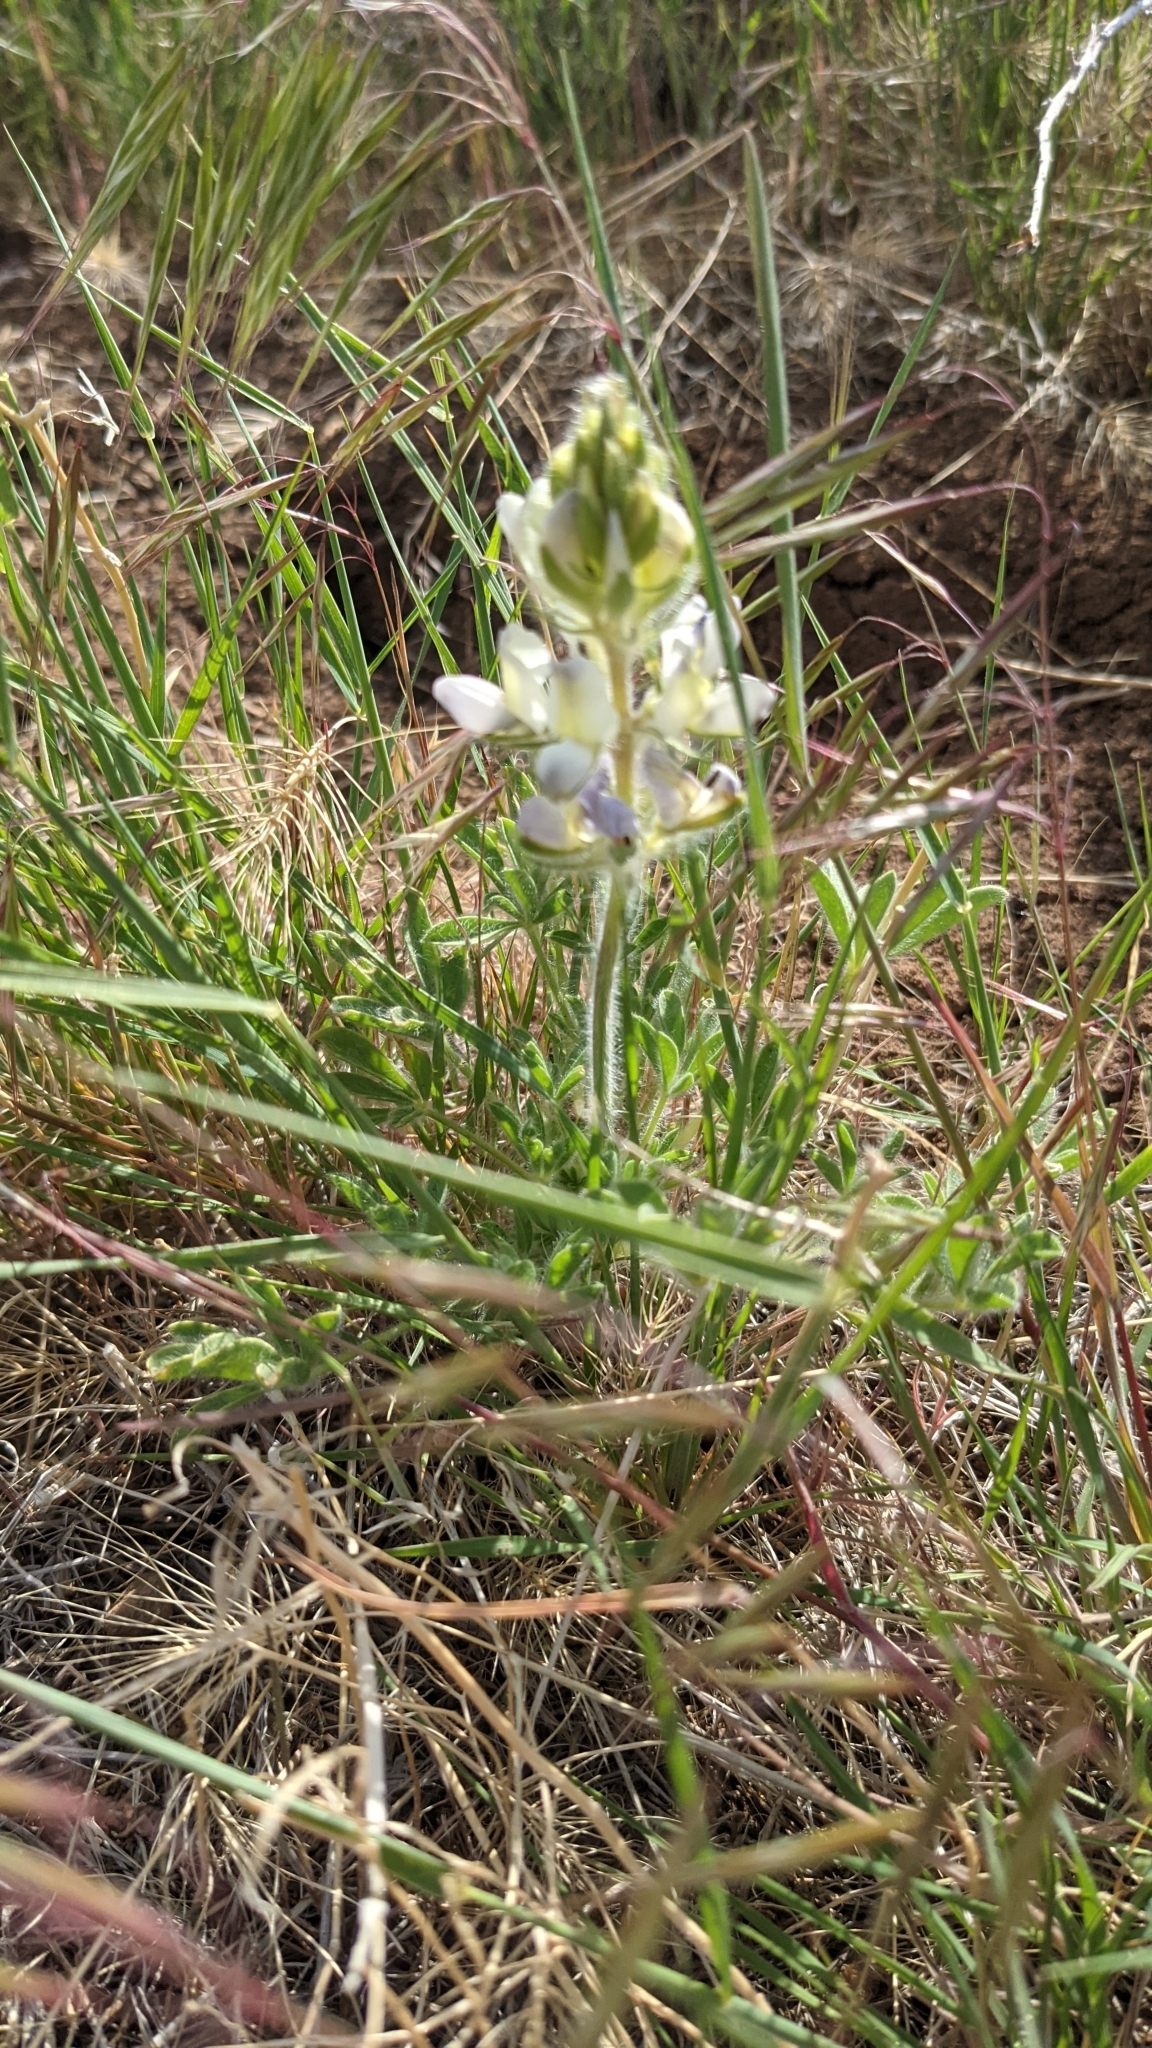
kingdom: Plantae
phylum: Tracheophyta
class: Magnoliopsida
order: Fabales
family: Fabaceae
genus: Lupinus
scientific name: Lupinus malacophyllus
